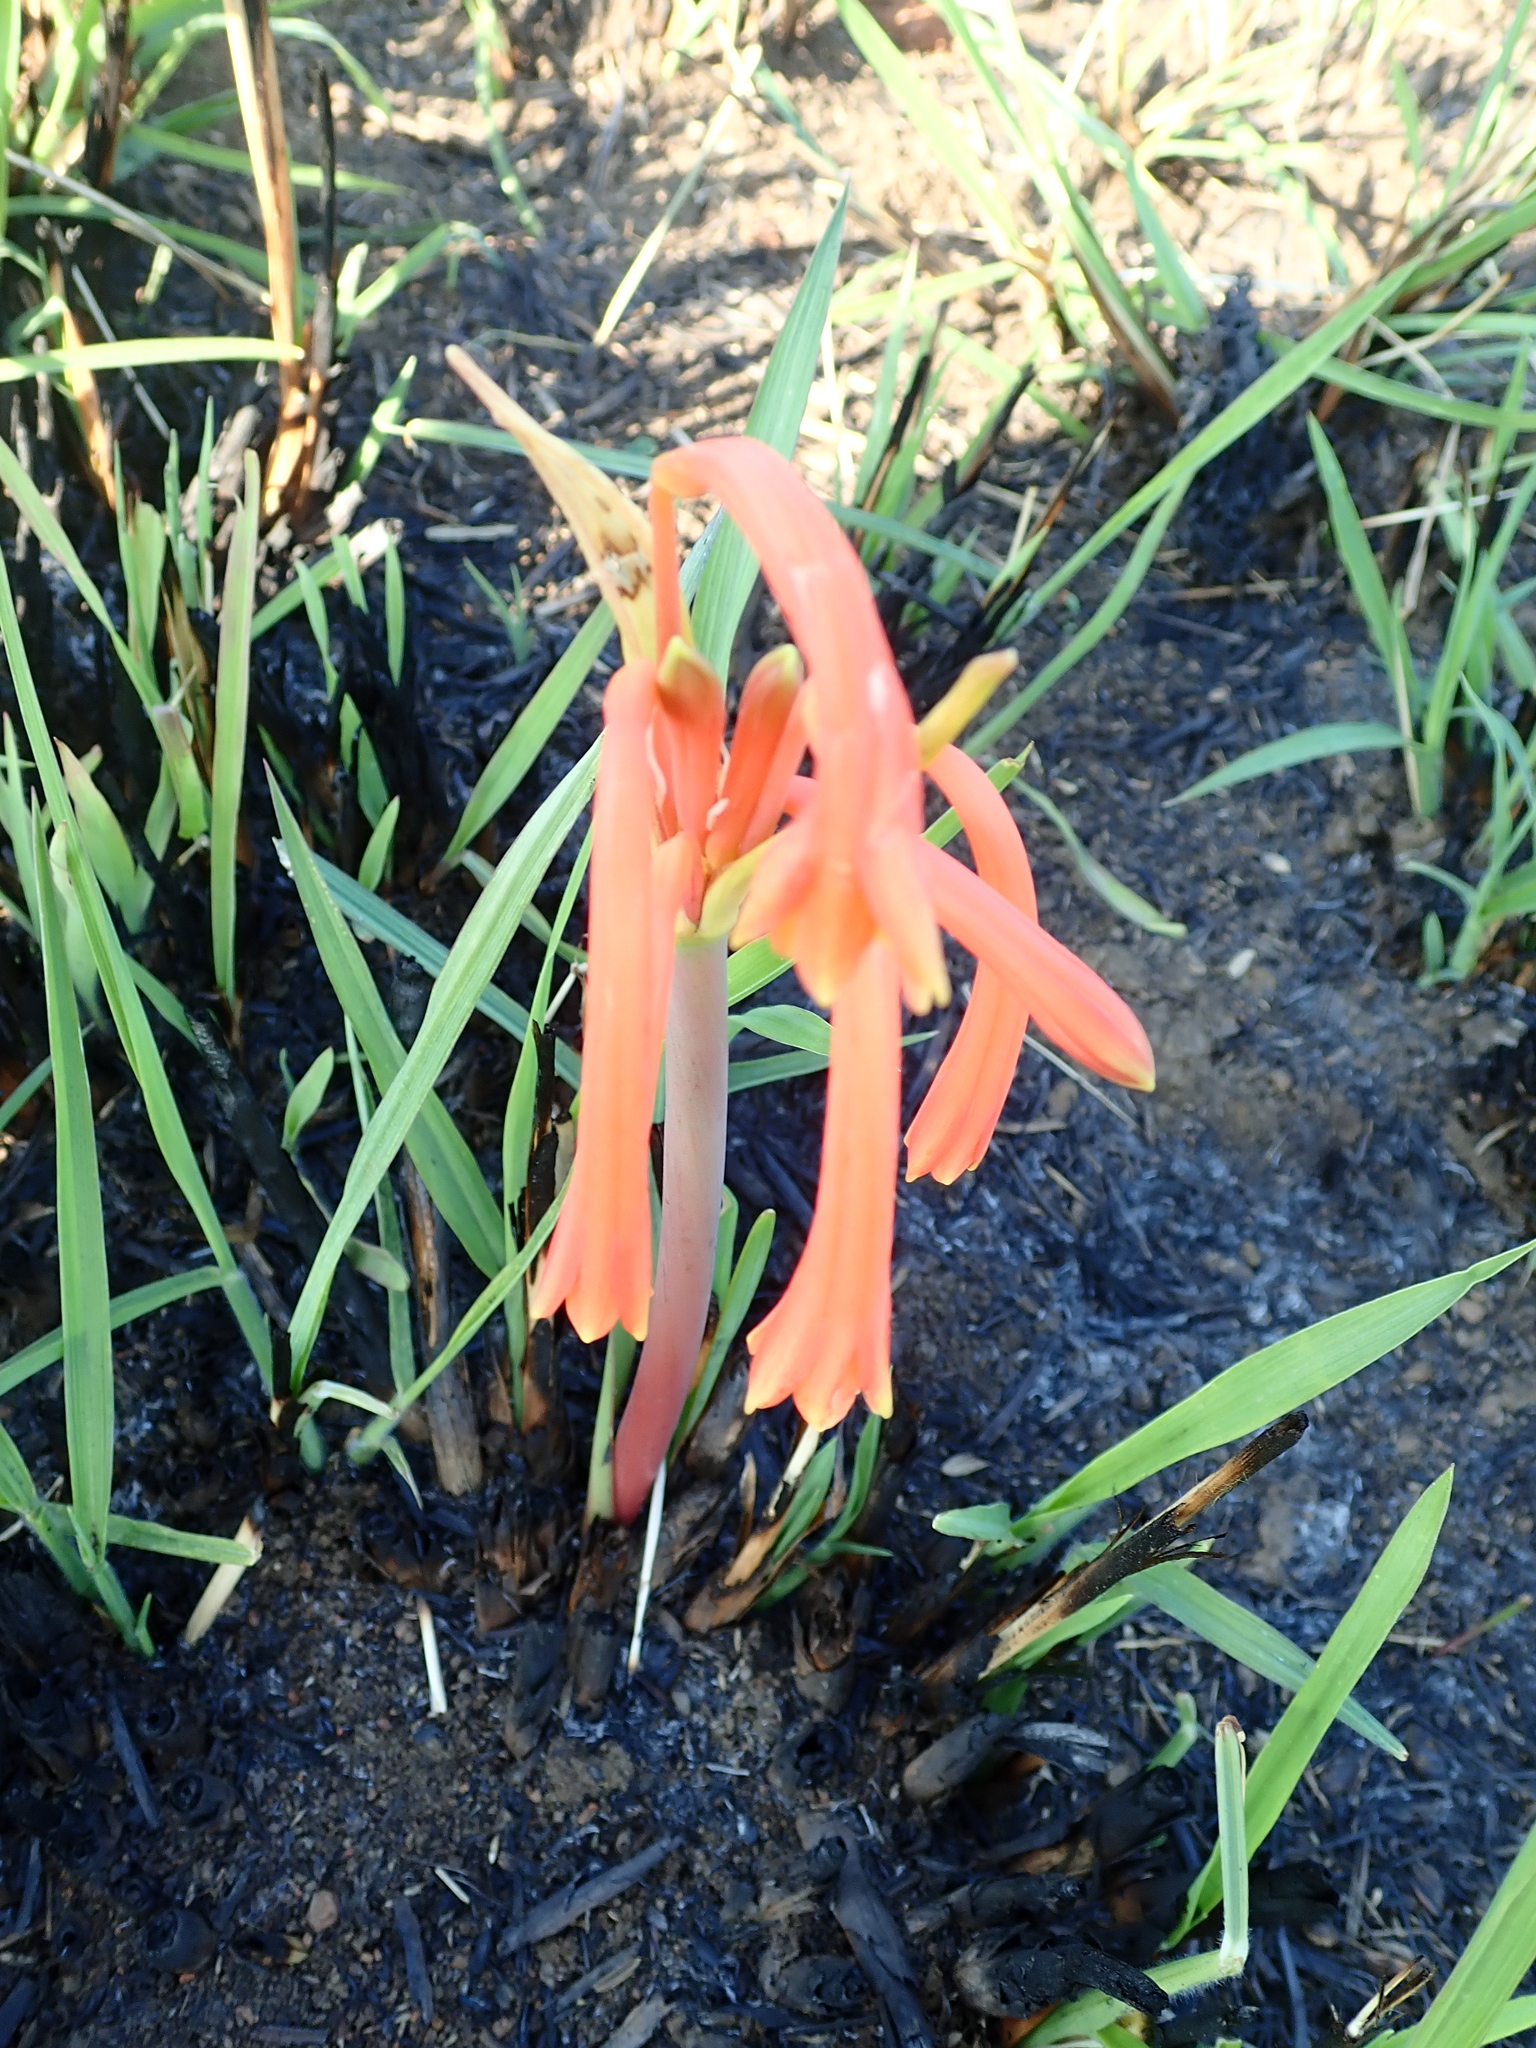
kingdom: Plantae
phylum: Tracheophyta
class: Liliopsida
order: Asparagales
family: Amaryllidaceae
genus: Cyrtanthus
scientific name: Cyrtanthus tuckii
